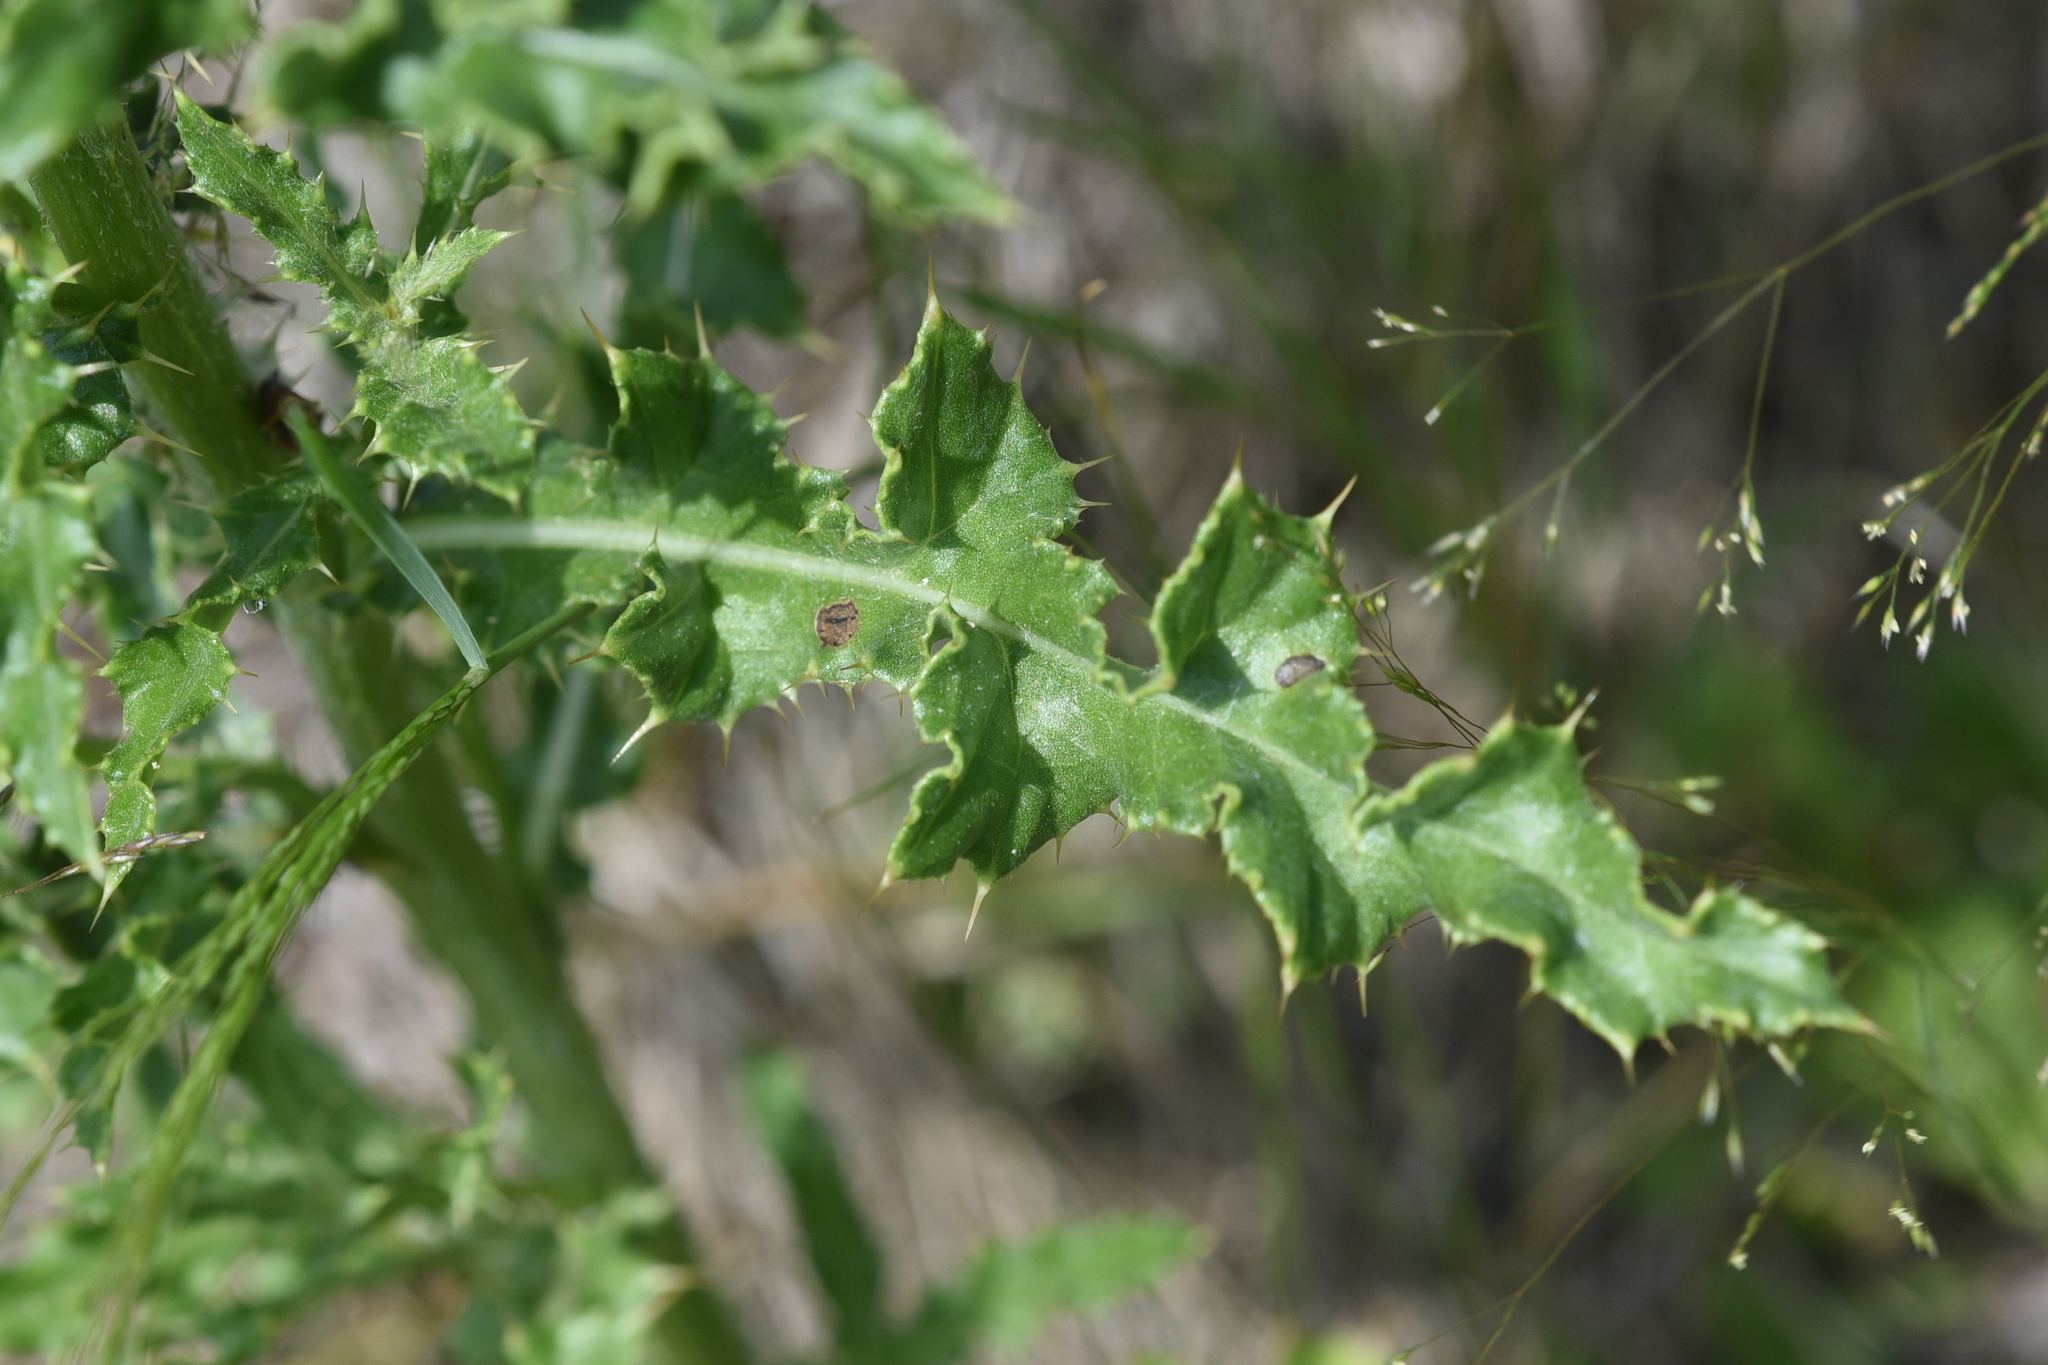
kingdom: Plantae
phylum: Tracheophyta
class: Magnoliopsida
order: Asterales
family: Asteraceae
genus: Cirsium
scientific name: Cirsium arvense
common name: Creeping thistle
